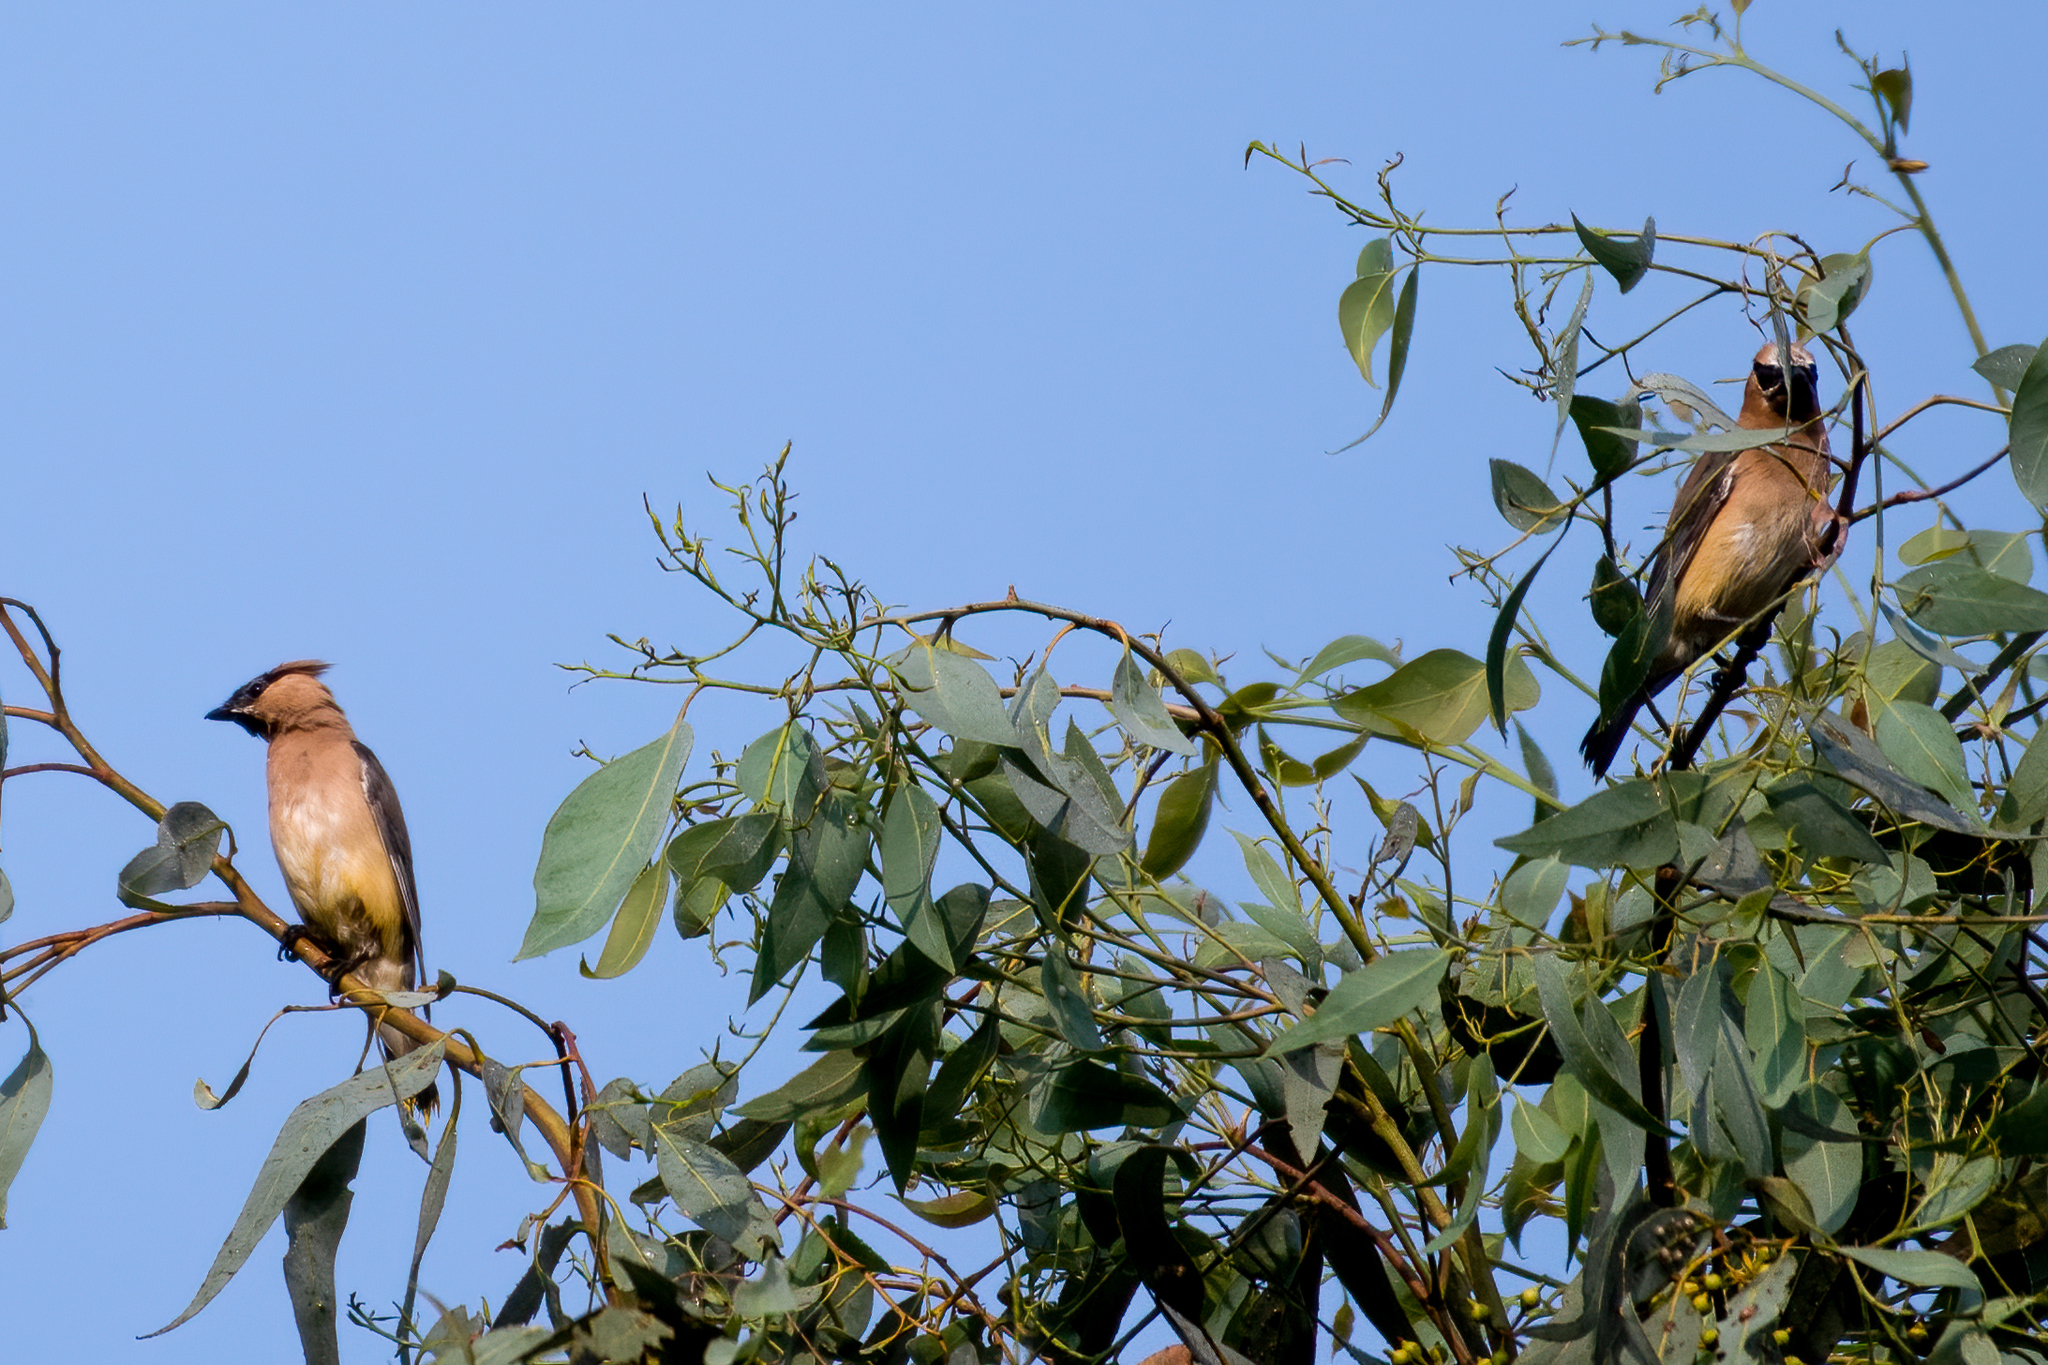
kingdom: Animalia
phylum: Chordata
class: Aves
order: Passeriformes
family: Bombycillidae
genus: Bombycilla
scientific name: Bombycilla cedrorum
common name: Cedar waxwing
